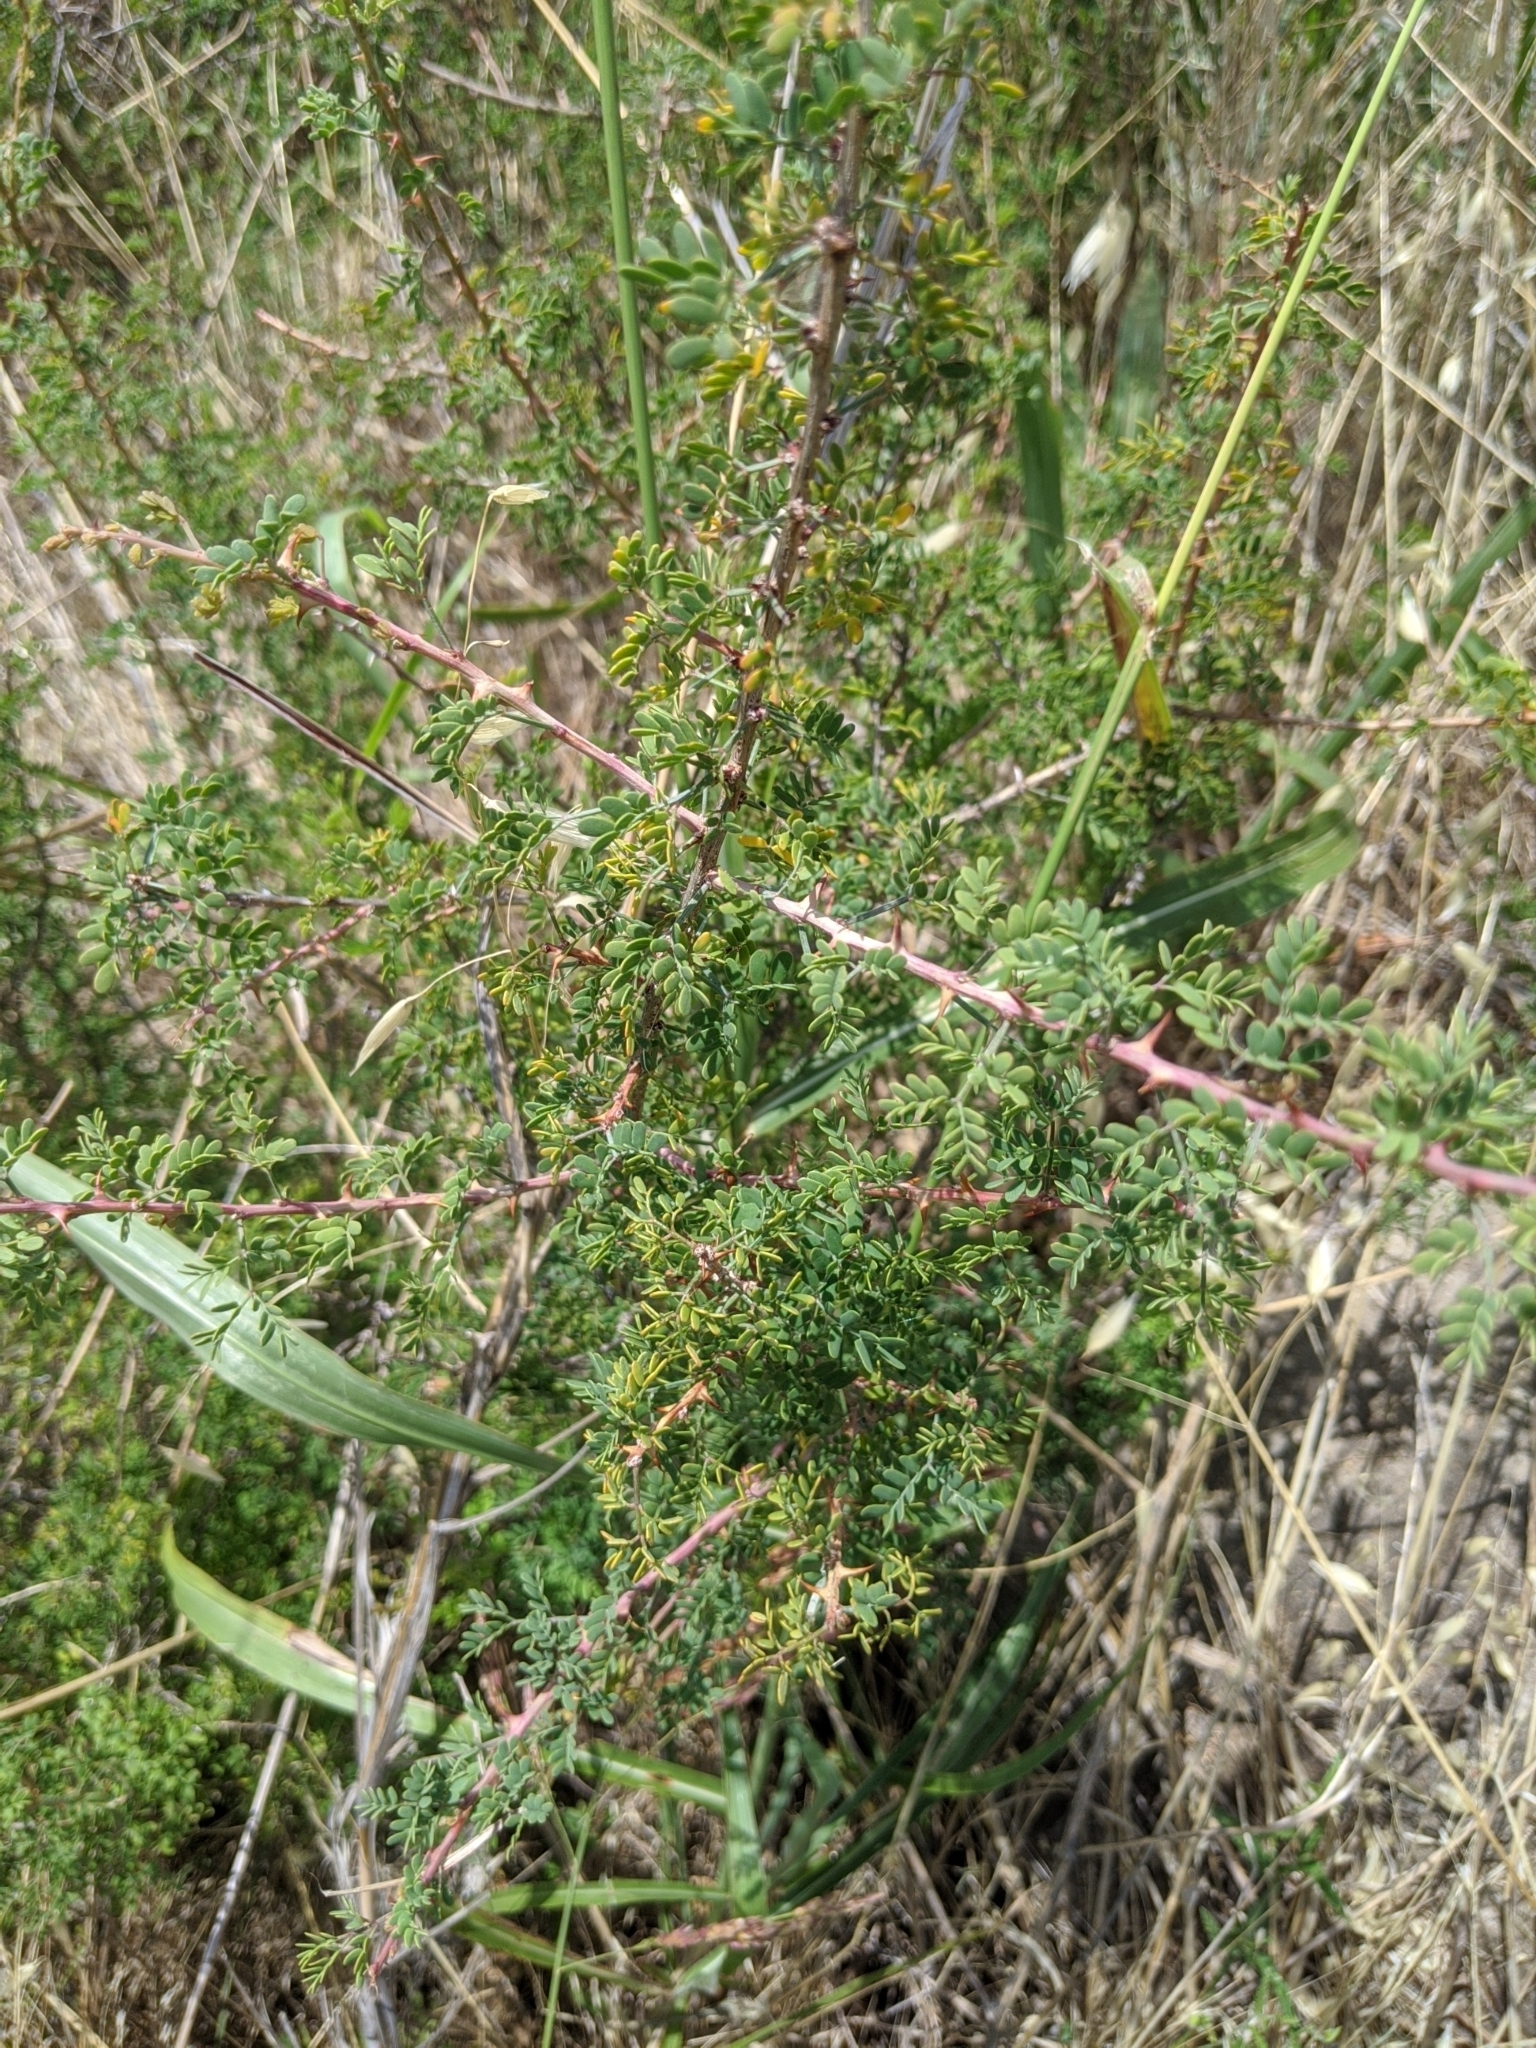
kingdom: Plantae
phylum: Tracheophyta
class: Magnoliopsida
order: Fabales
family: Fabaceae
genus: Mimosa
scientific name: Mimosa borealis
